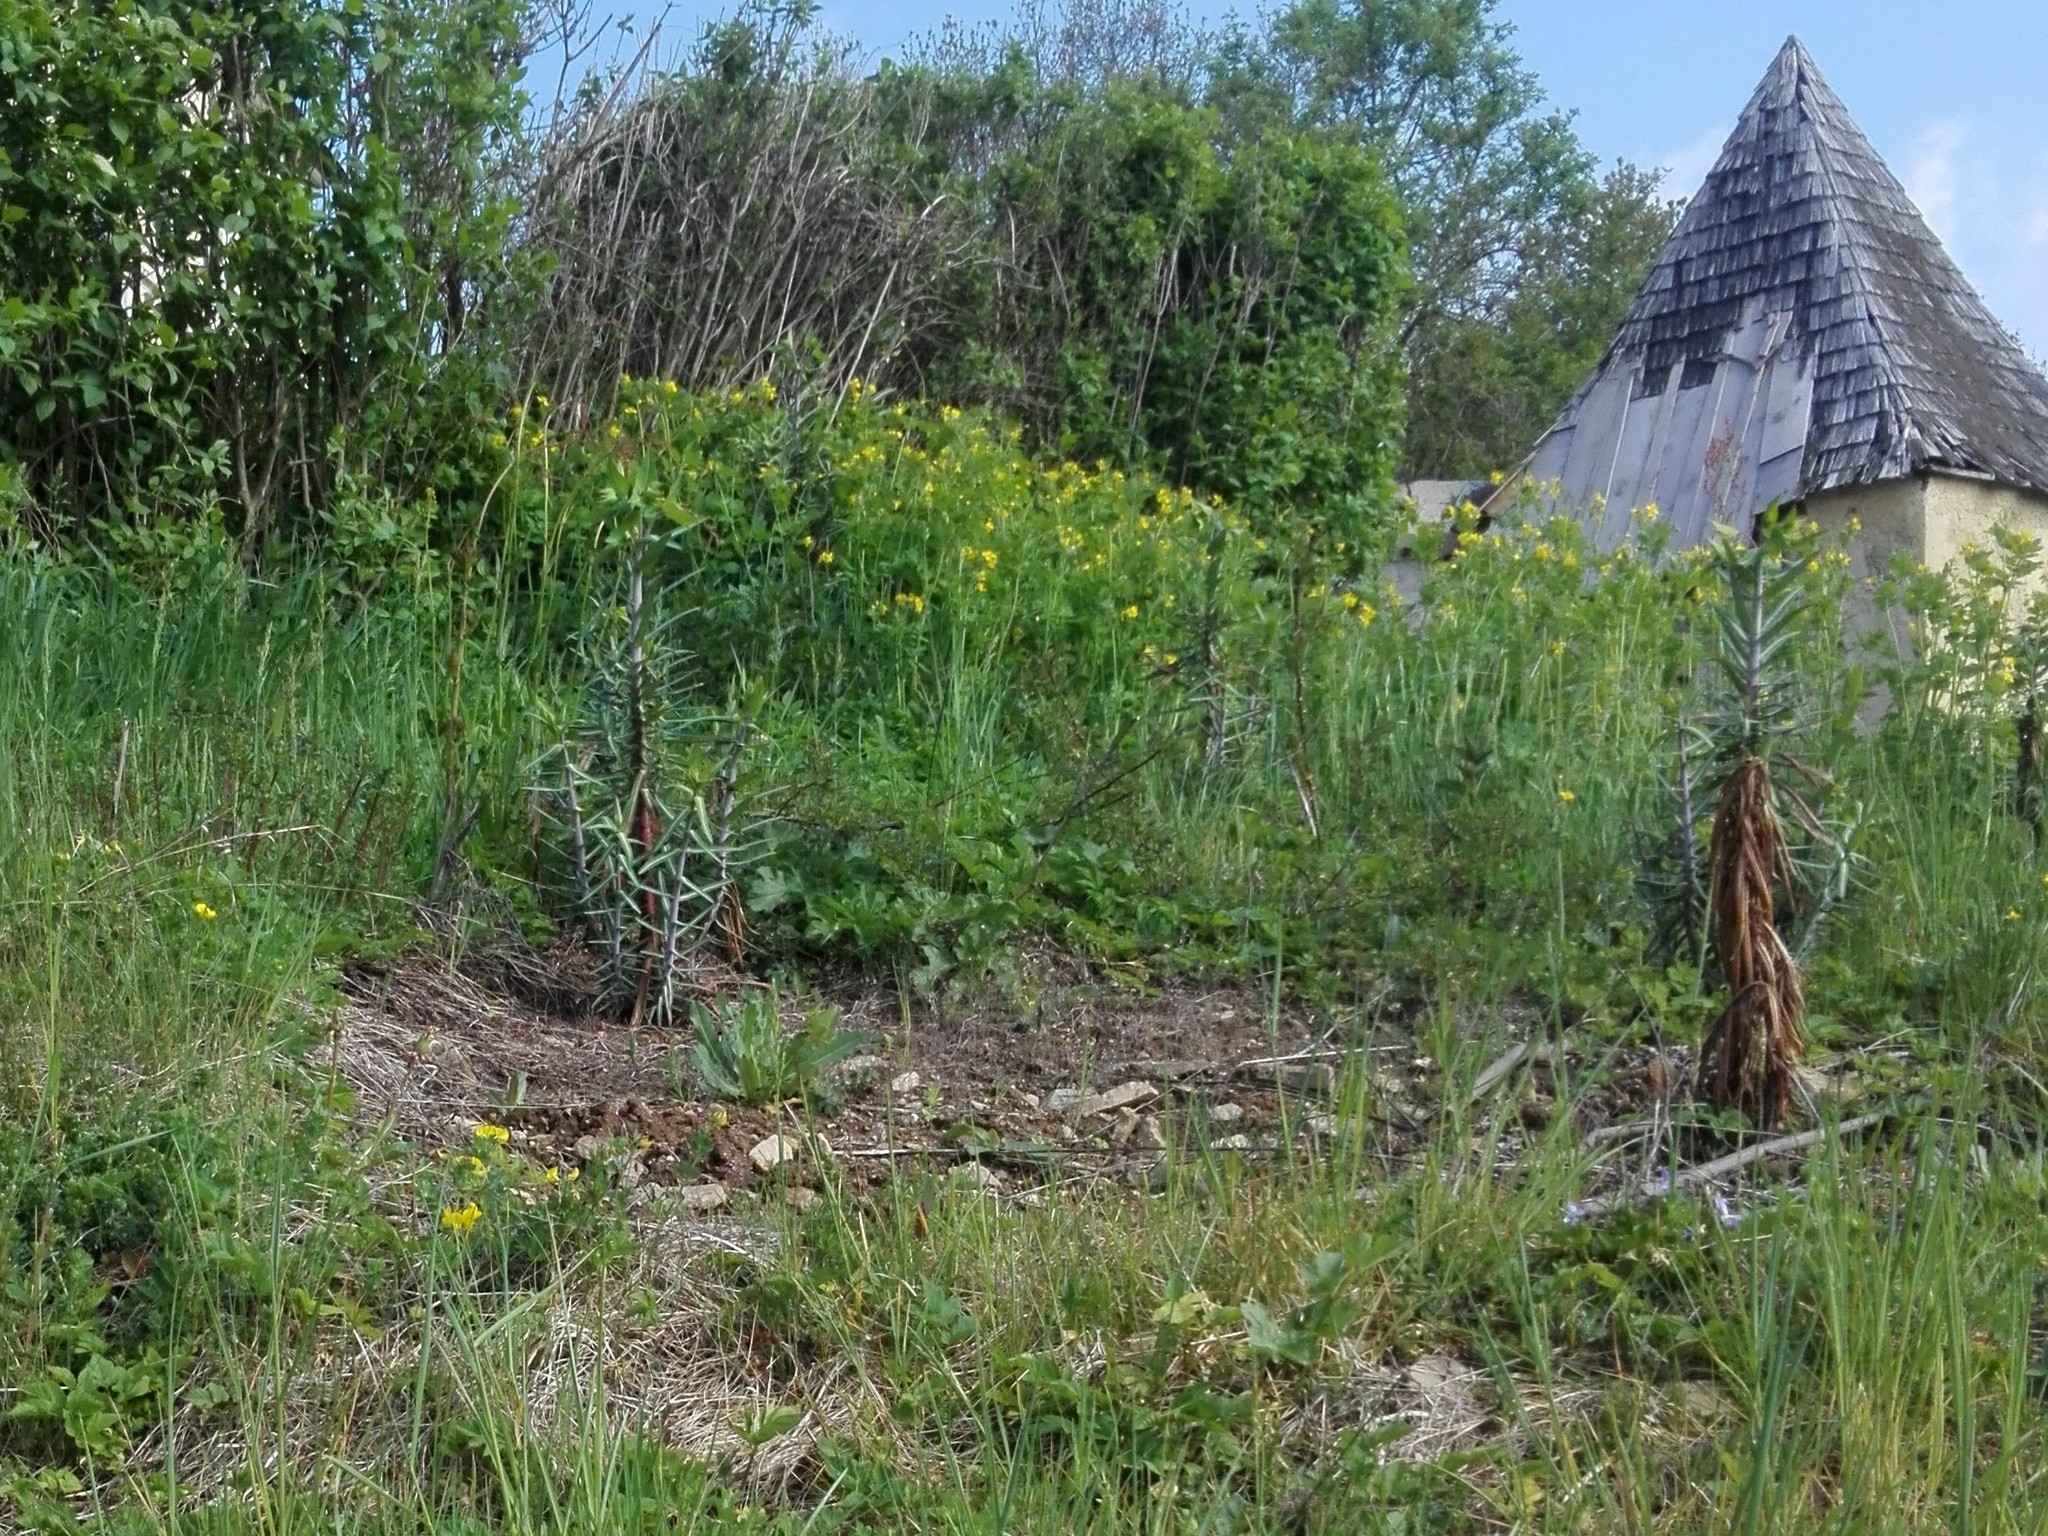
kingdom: Plantae
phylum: Tracheophyta
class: Magnoliopsida
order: Malpighiales
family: Euphorbiaceae
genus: Euphorbia
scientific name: Euphorbia lathyris
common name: Caper spurge
